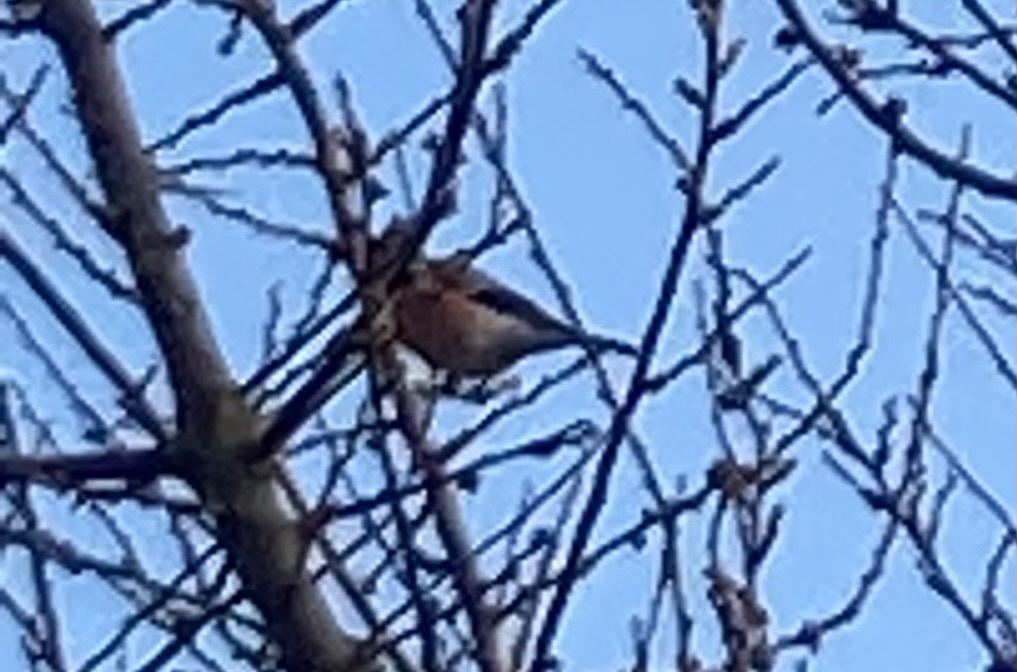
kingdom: Animalia
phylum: Chordata
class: Aves
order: Passeriformes
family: Fringillidae
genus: Pyrrhula
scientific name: Pyrrhula pyrrhula
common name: Eurasian bullfinch
